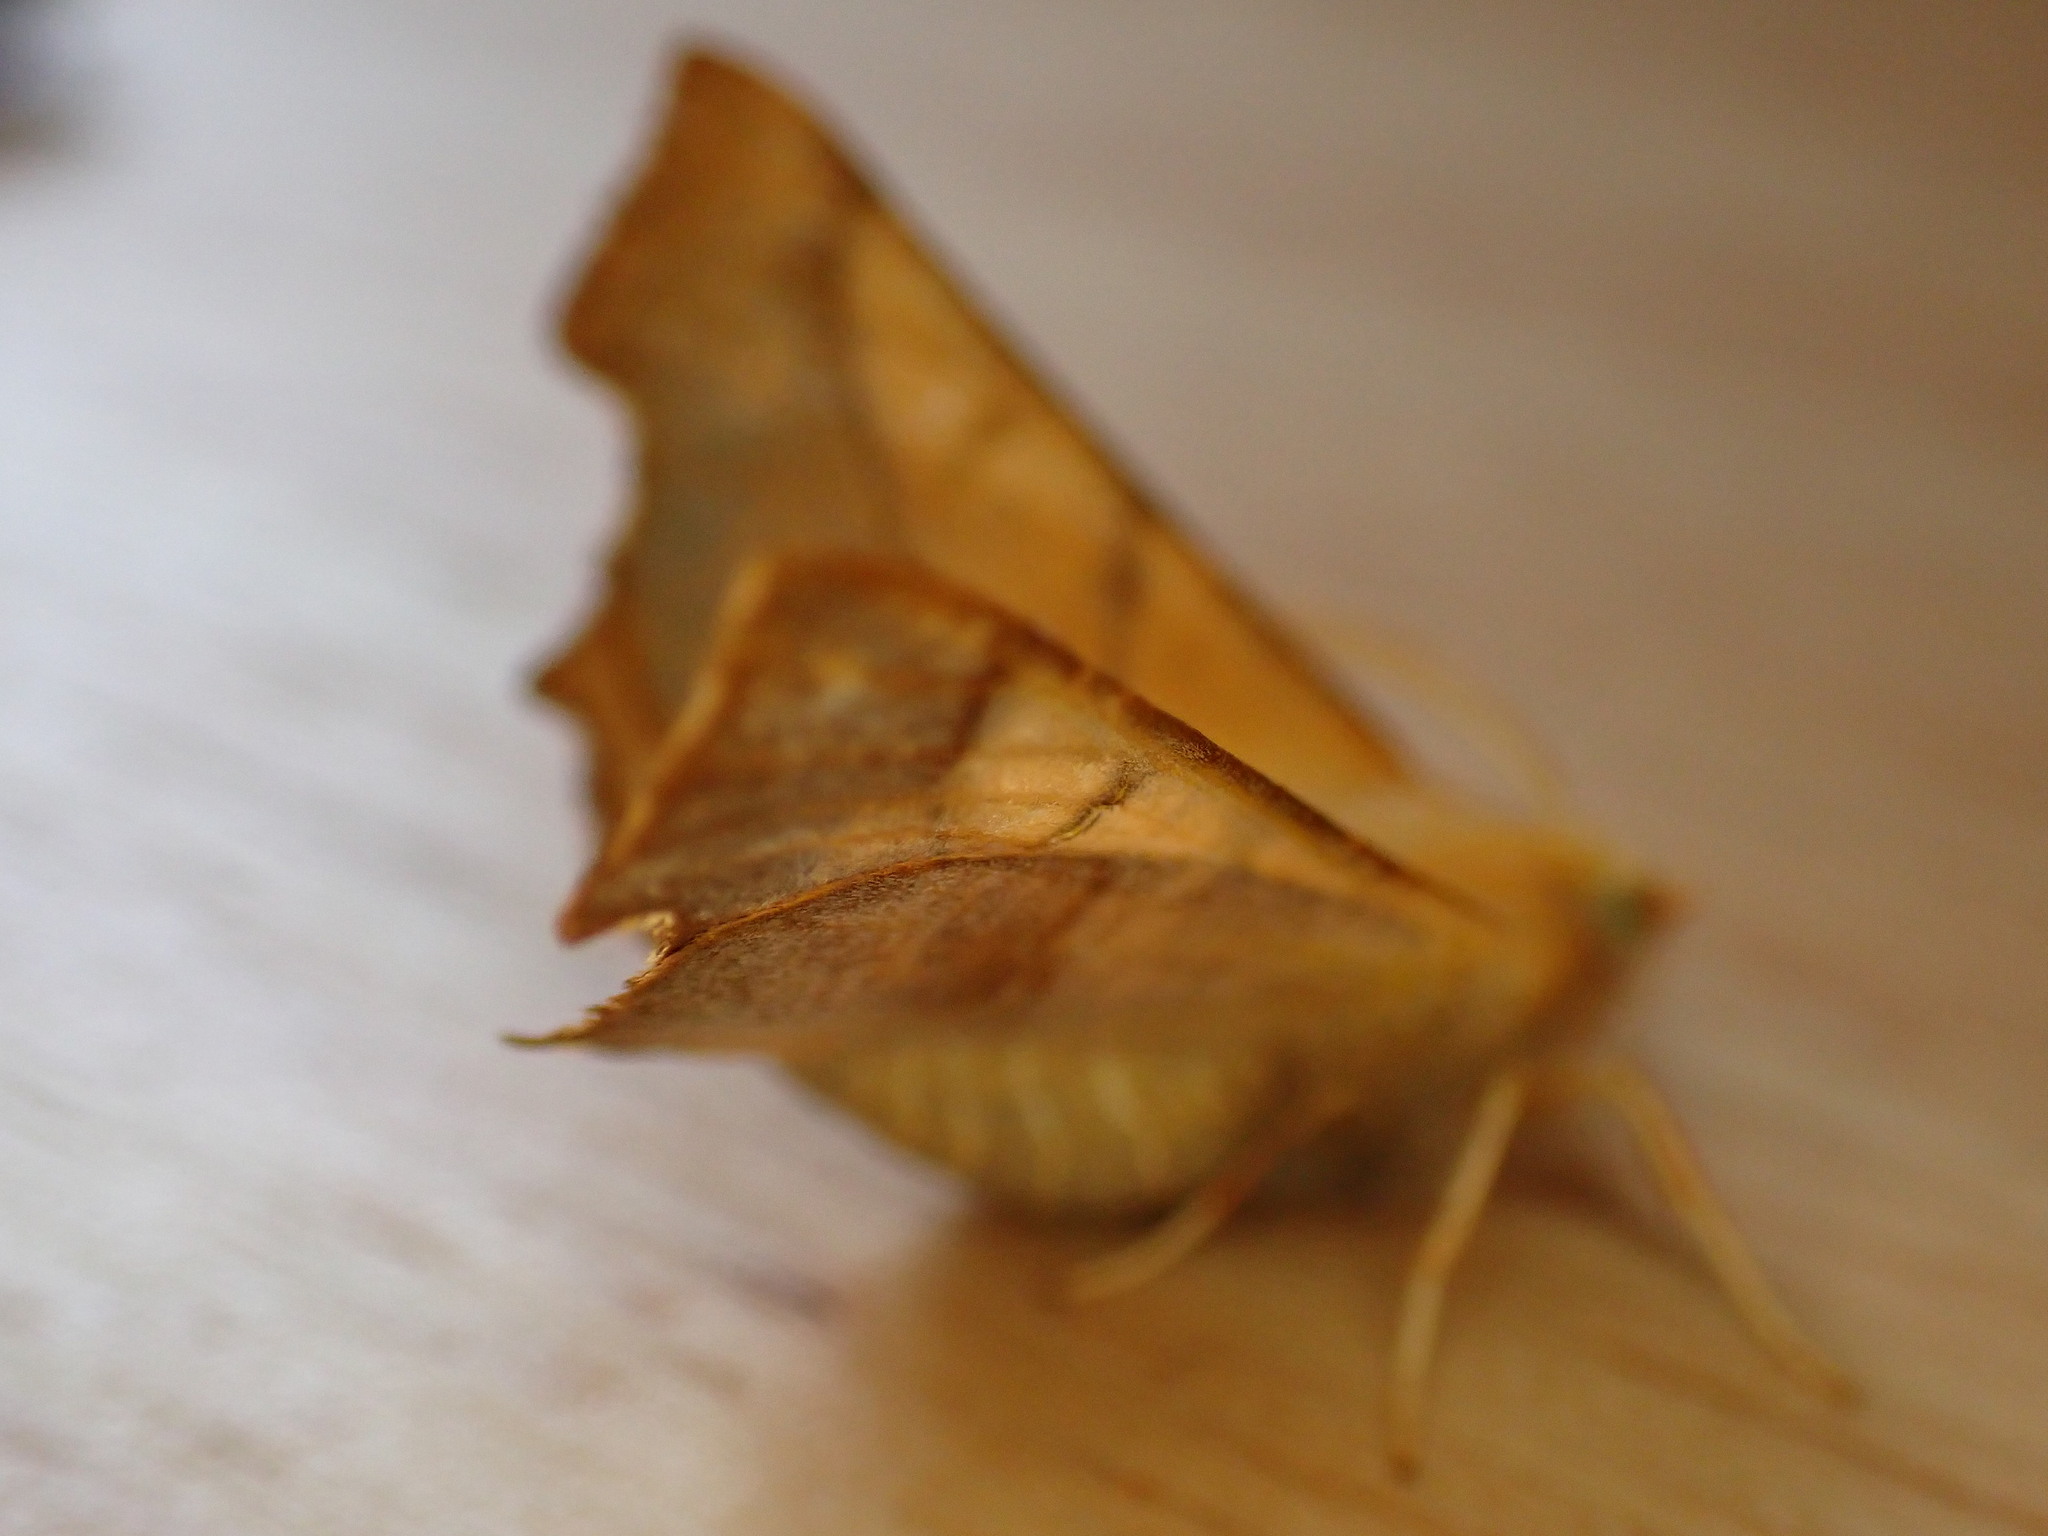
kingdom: Animalia
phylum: Arthropoda
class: Insecta
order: Lepidoptera
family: Geometridae
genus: Ennomos
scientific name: Ennomos fuscantaria
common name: Dusky thorn
